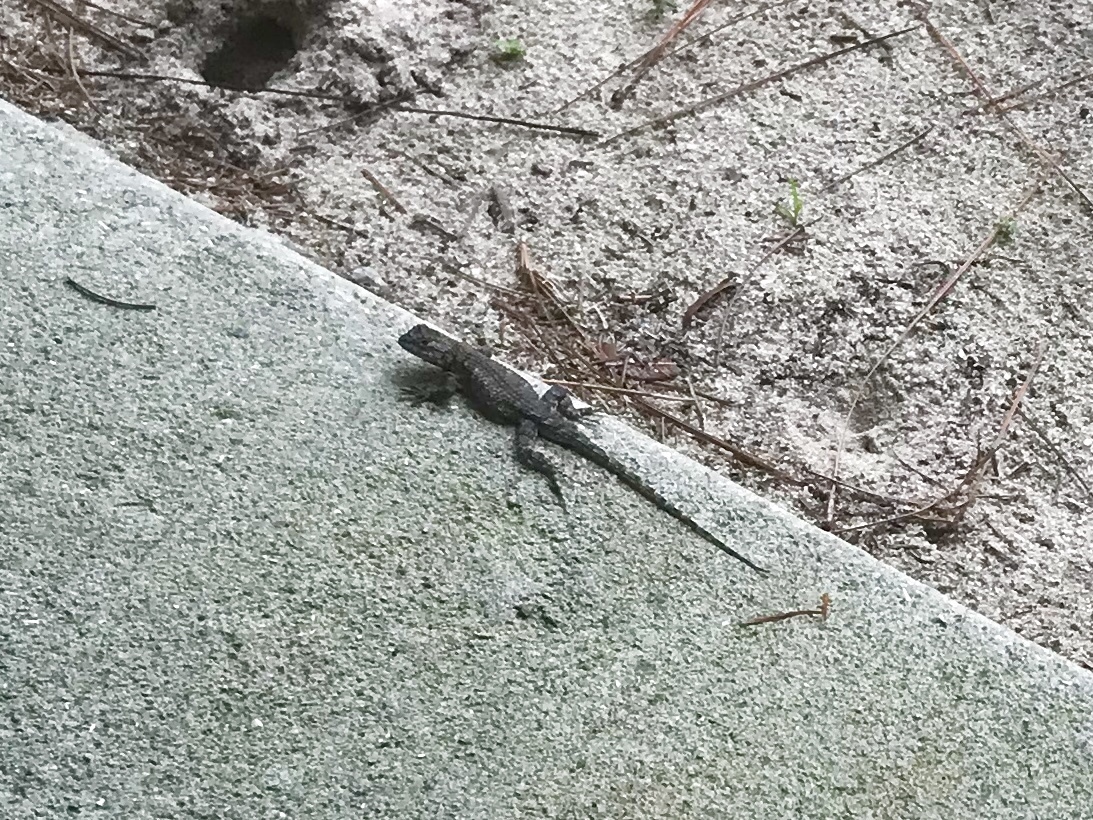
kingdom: Animalia
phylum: Chordata
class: Squamata
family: Phrynosomatidae
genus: Sceloporus
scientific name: Sceloporus undulatus
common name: Eastern fence lizard
